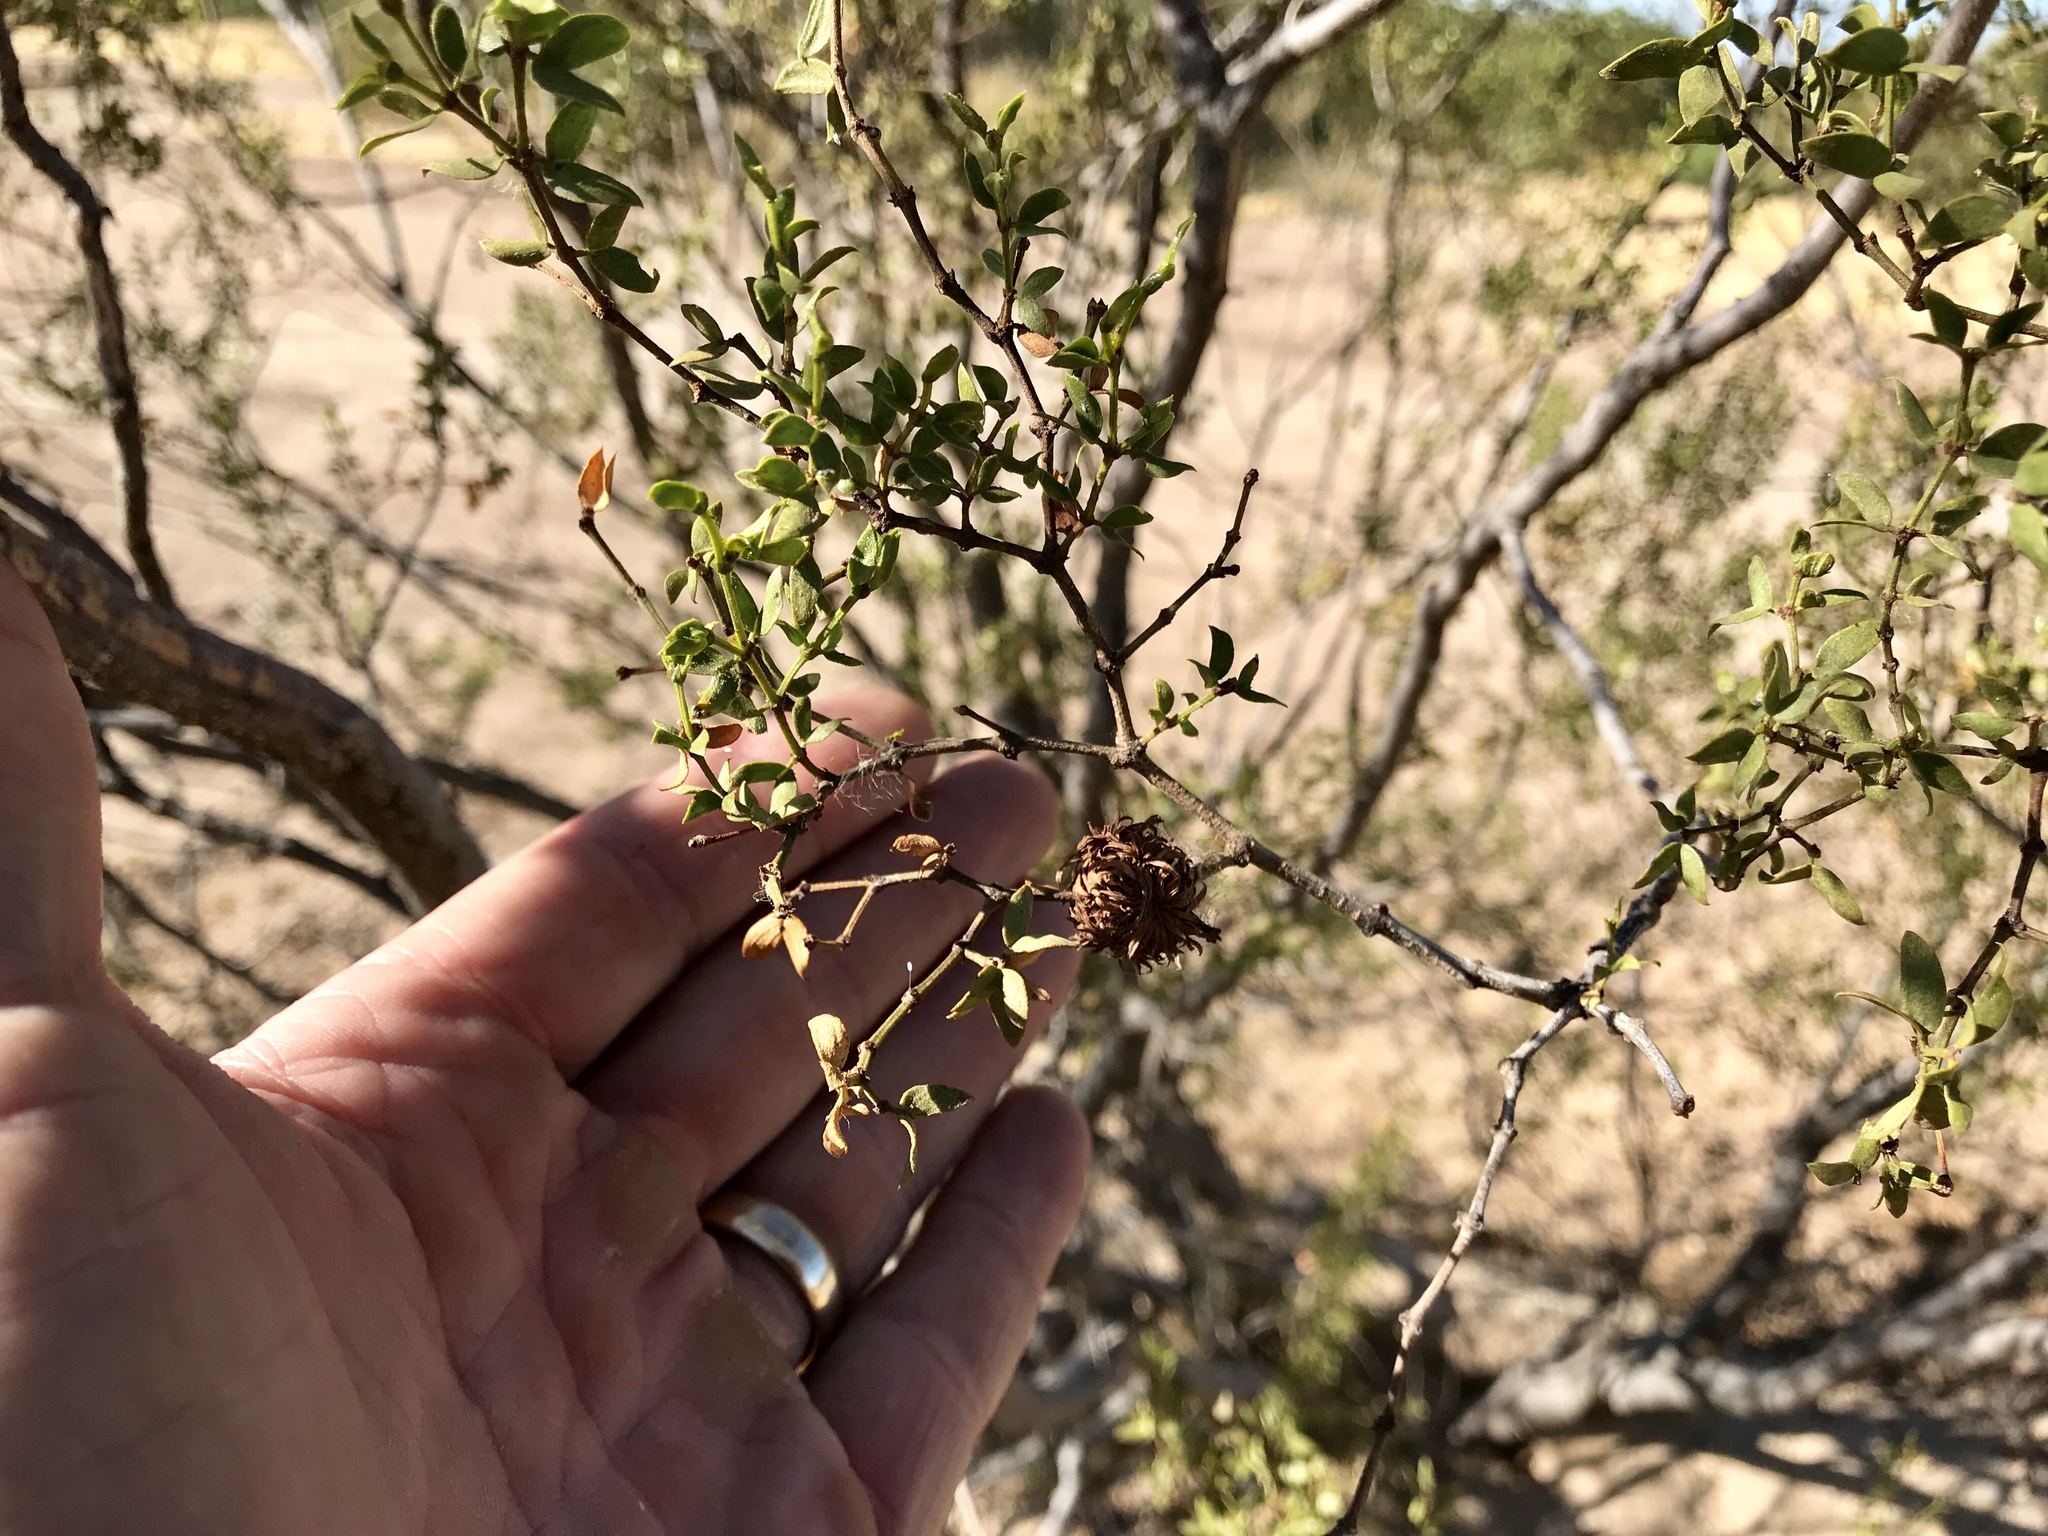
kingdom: Animalia
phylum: Arthropoda
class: Insecta
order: Diptera
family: Cecidomyiidae
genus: Asphondylia
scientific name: Asphondylia auripila
